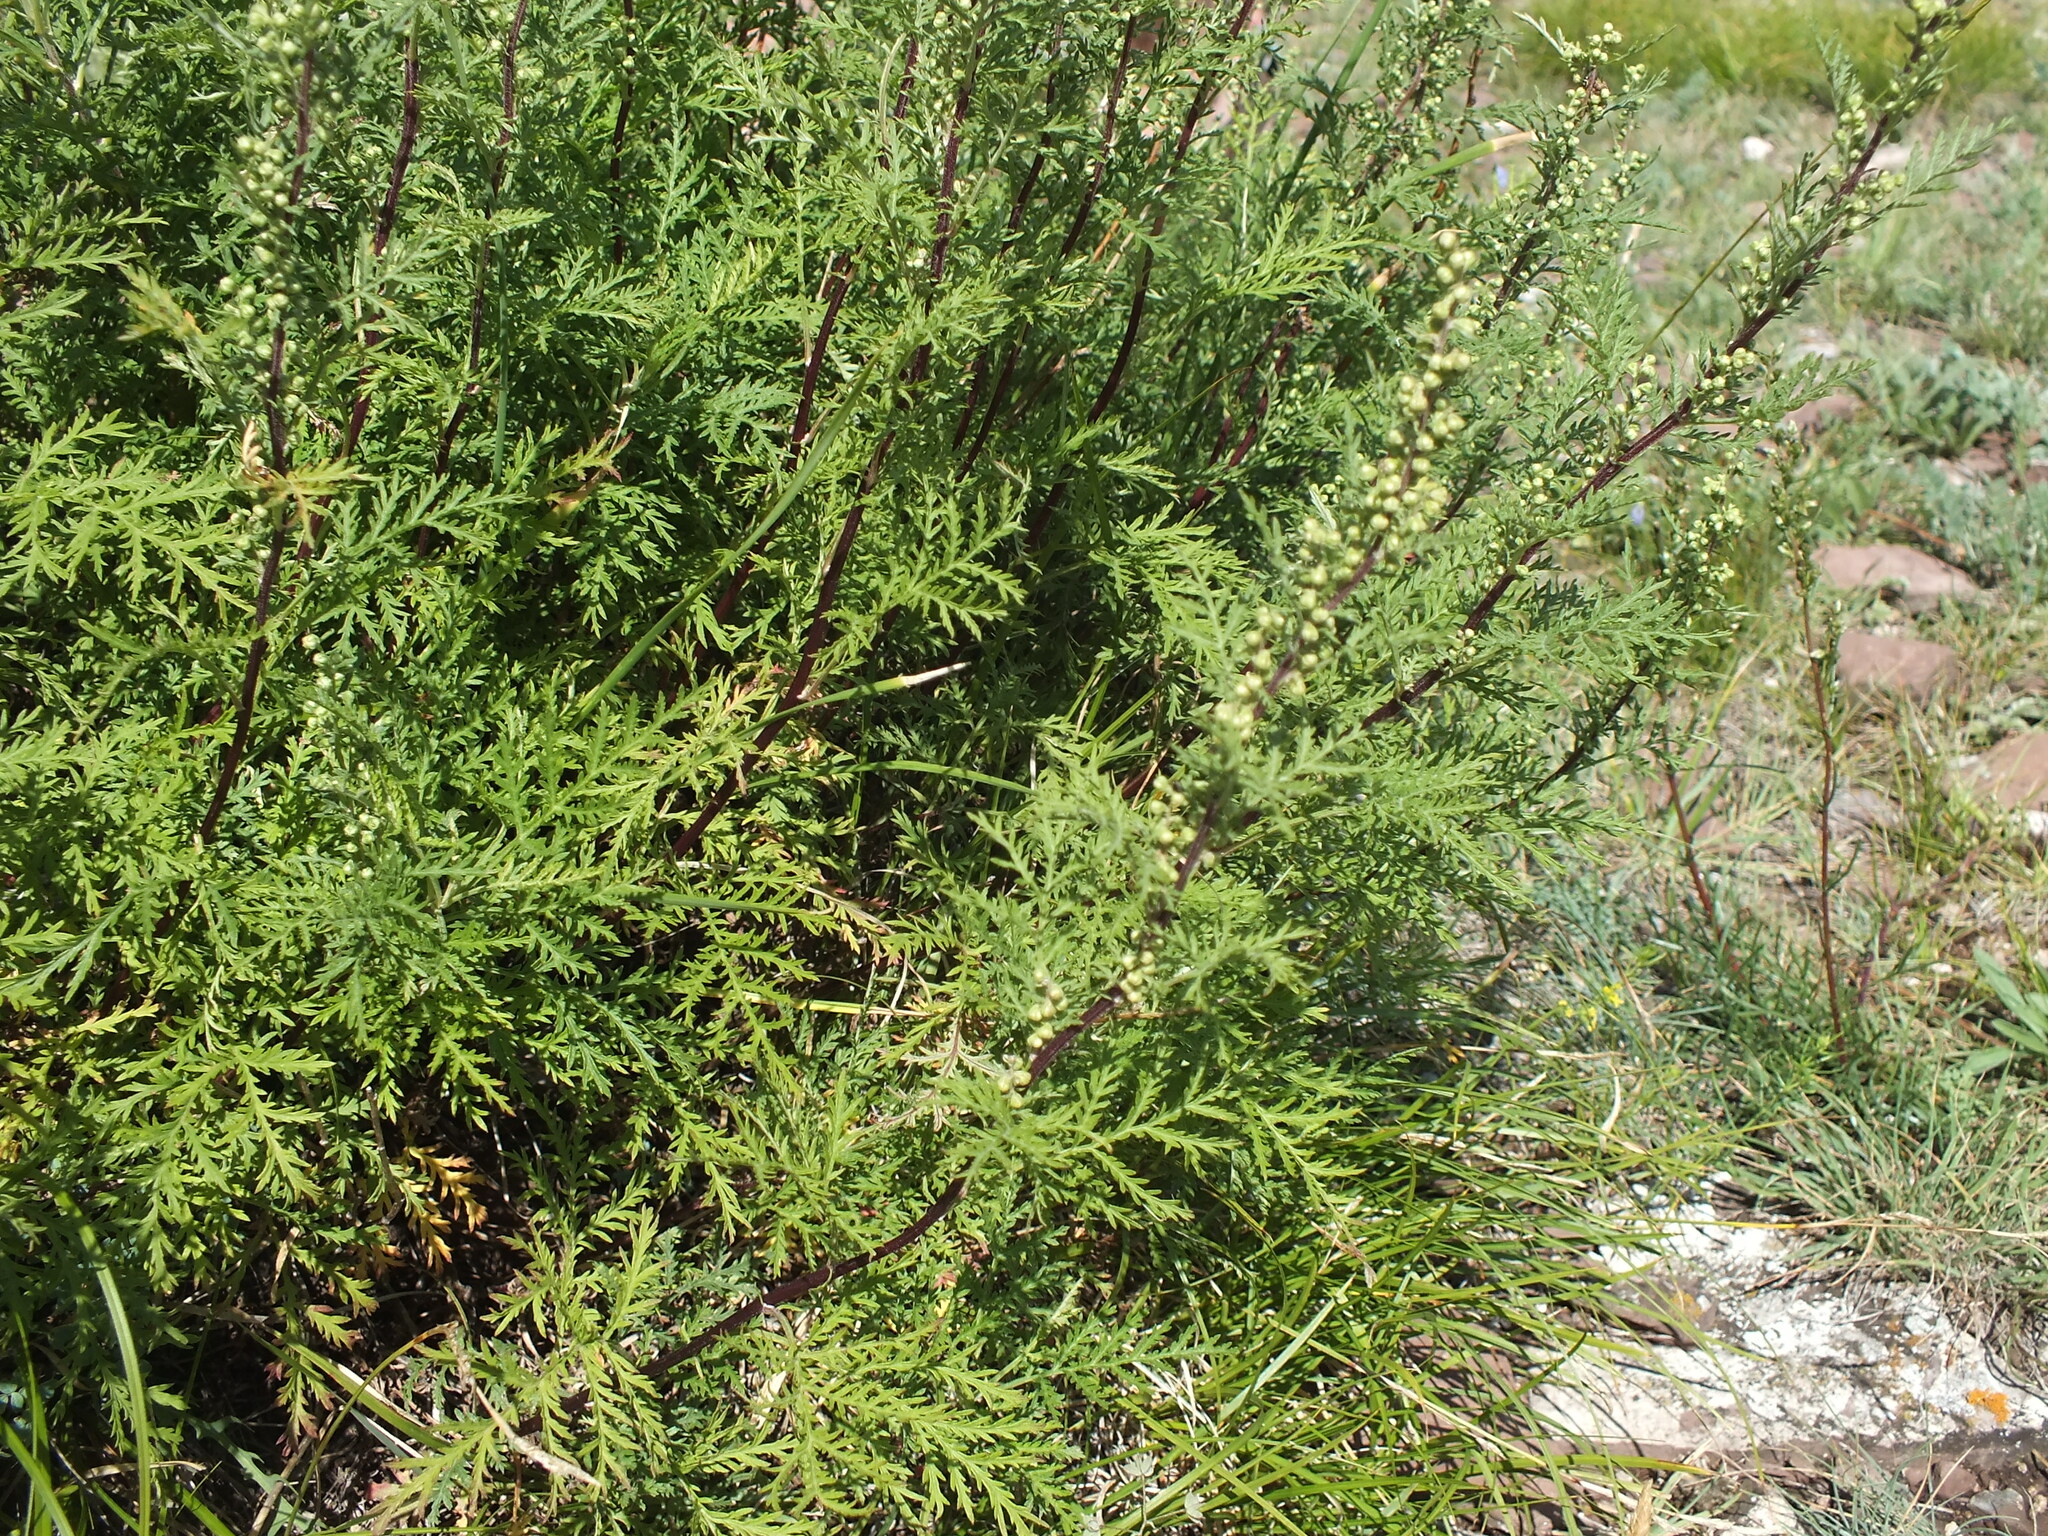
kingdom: Plantae
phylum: Tracheophyta
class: Magnoliopsida
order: Asterales
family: Asteraceae
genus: Artemisia
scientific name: Artemisia gmelinii
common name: Gmelin's wormwood
